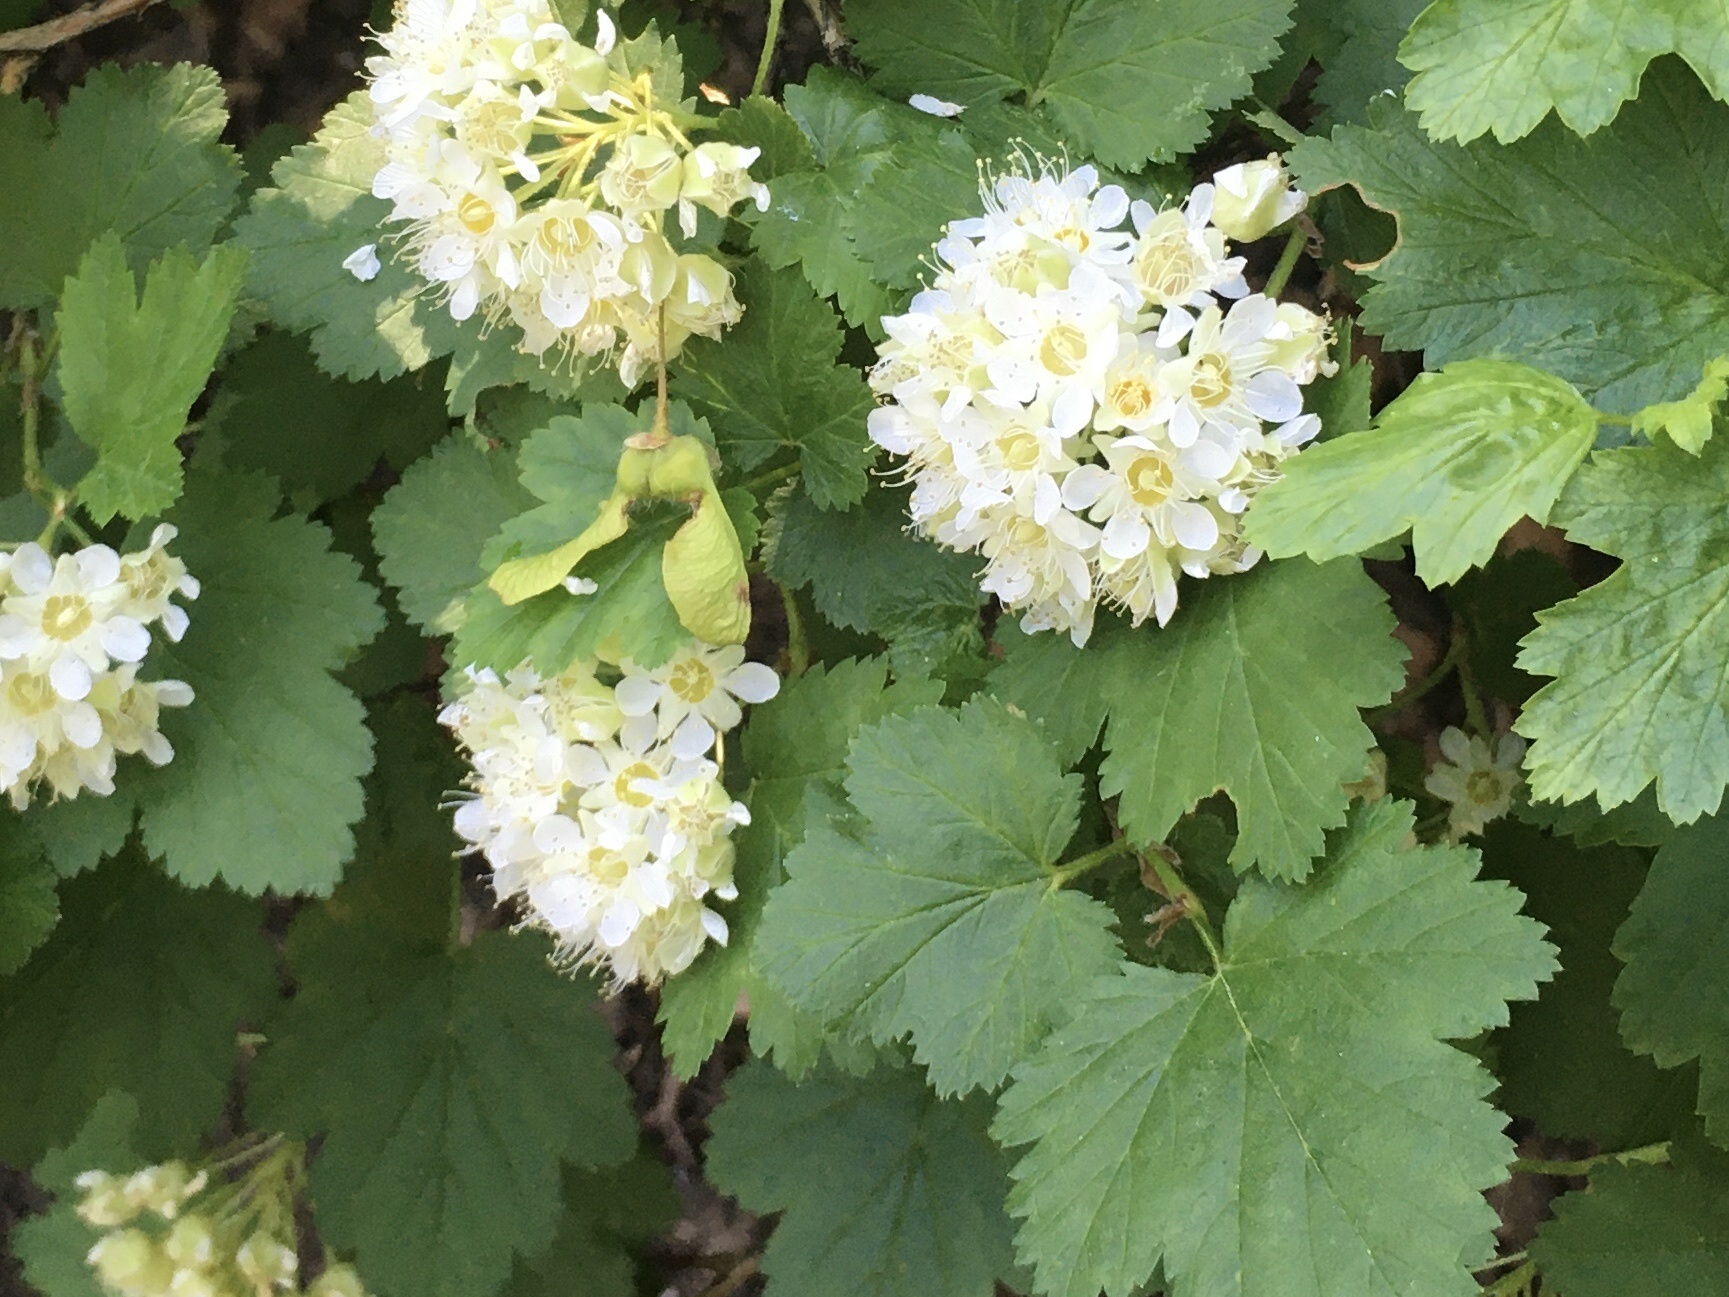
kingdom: Plantae
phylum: Tracheophyta
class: Magnoliopsida
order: Rosales
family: Rosaceae
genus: Physocarpus
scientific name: Physocarpus malvaceus
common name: Mallow ninebark
